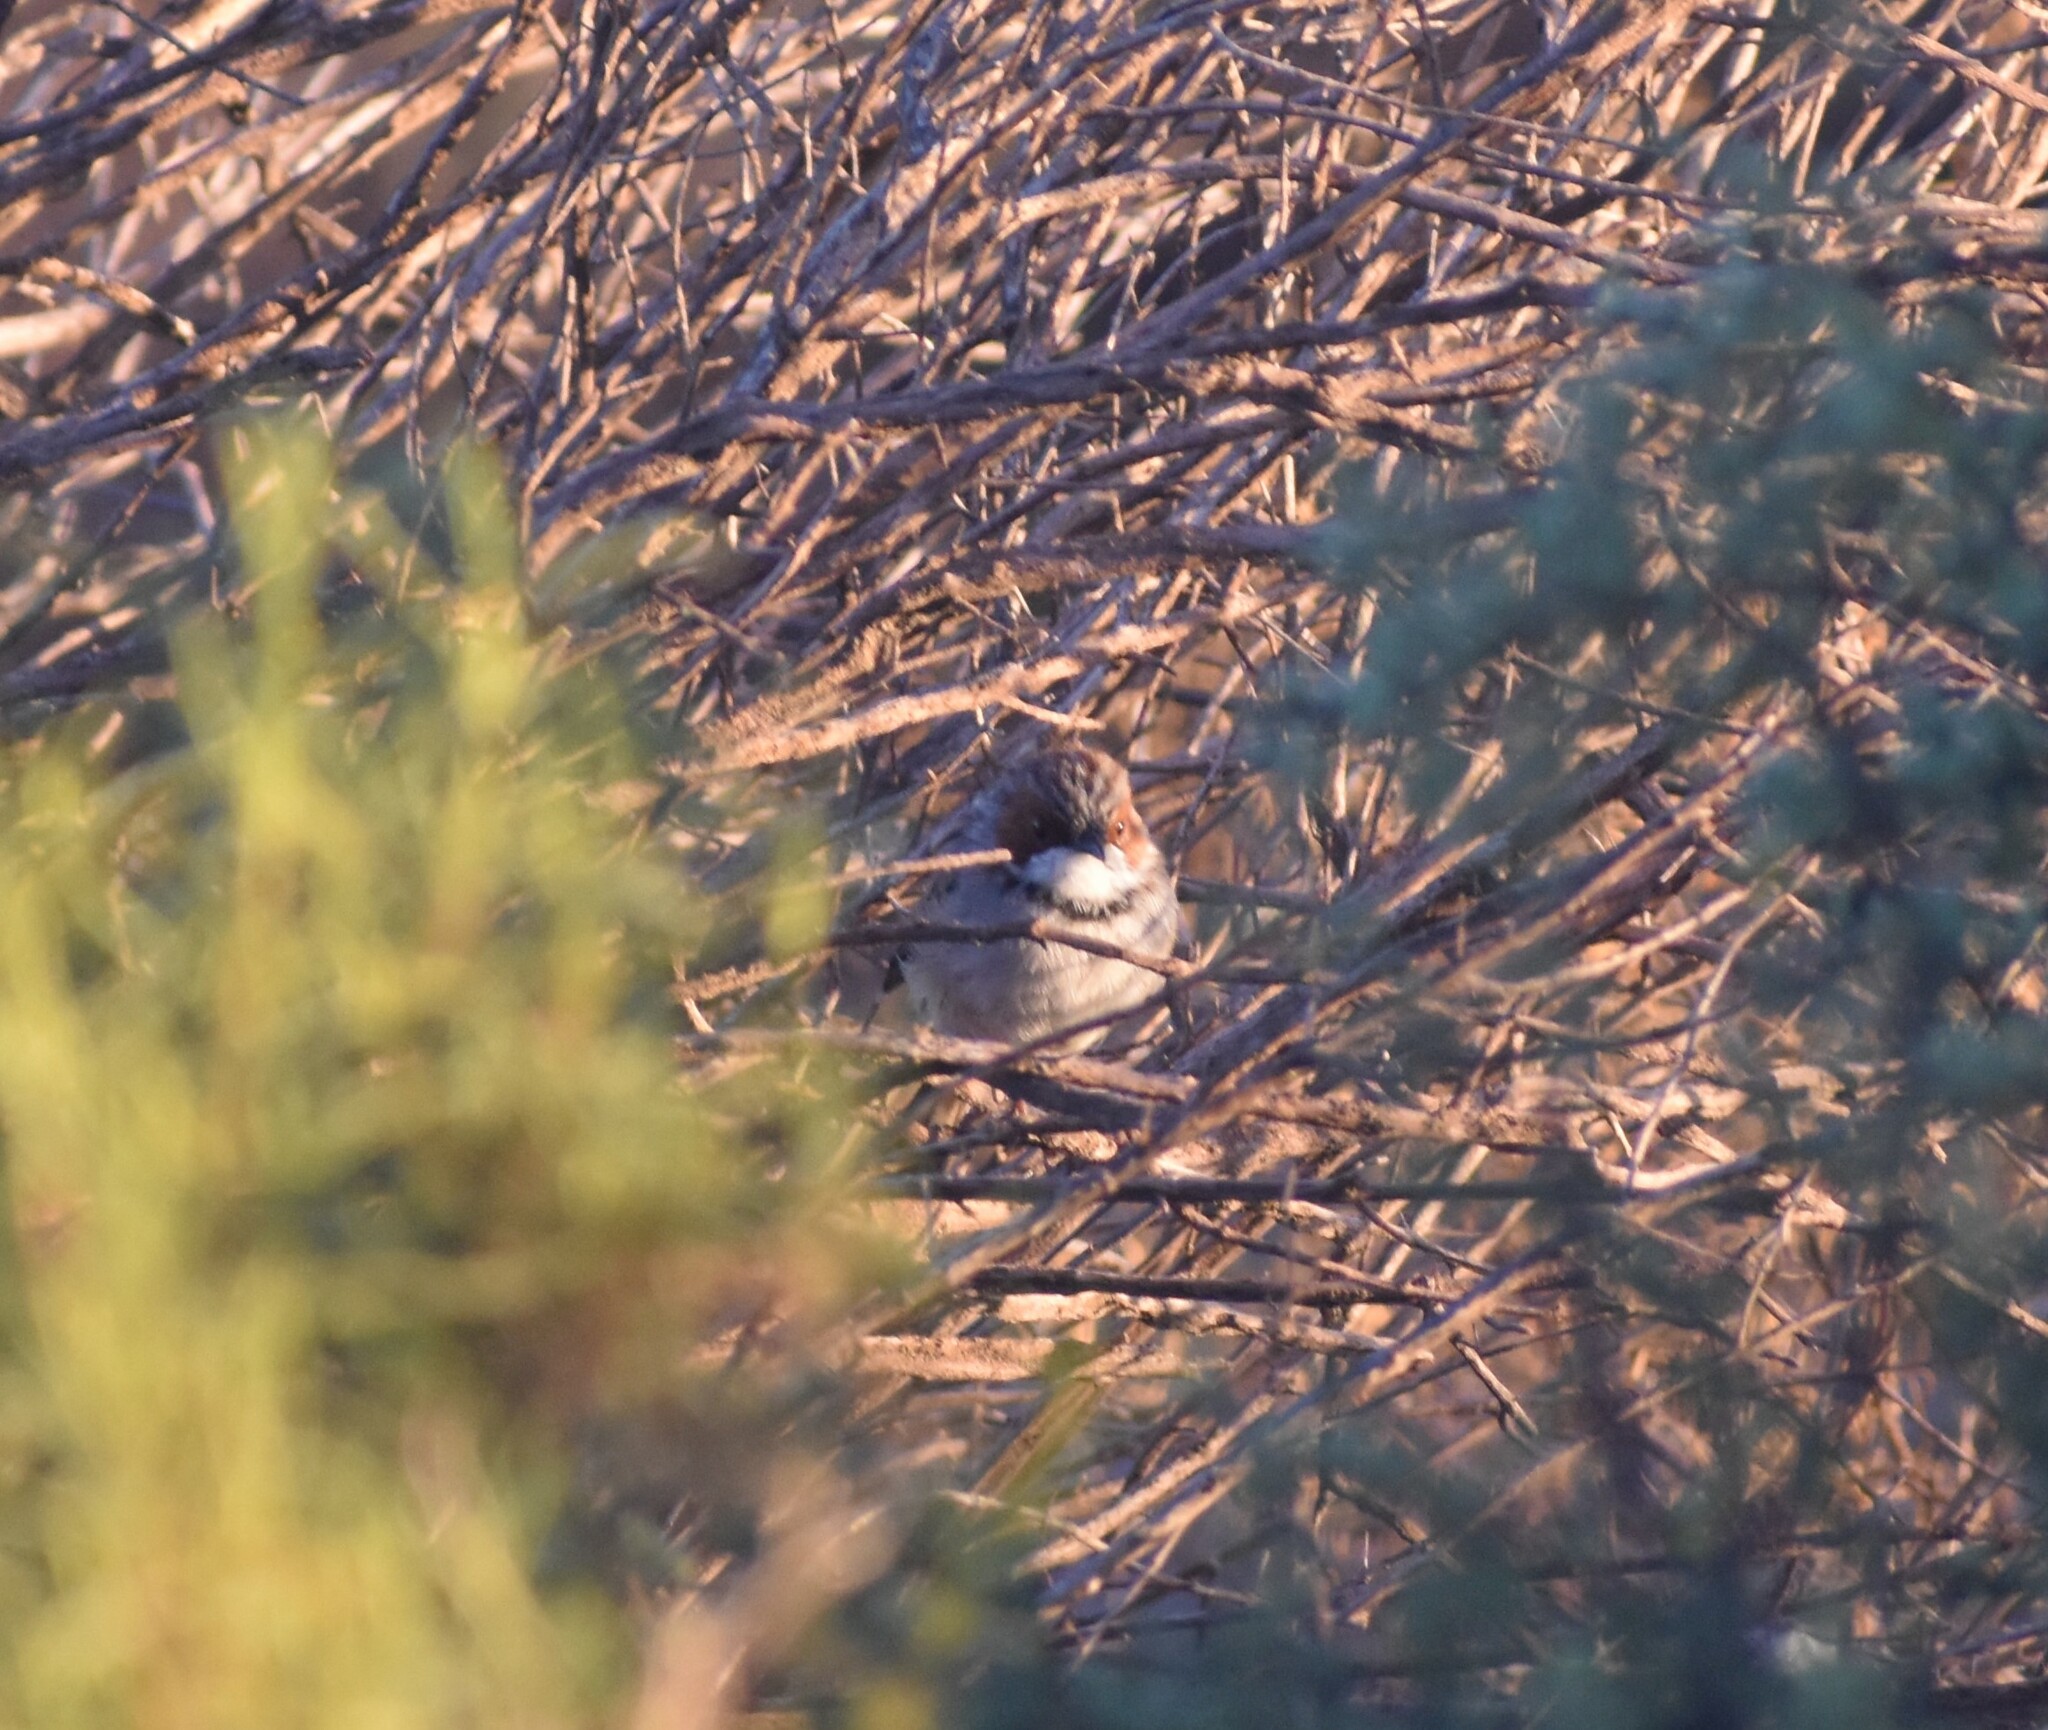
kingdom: Animalia
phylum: Chordata
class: Aves
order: Passeriformes
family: Cisticolidae
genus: Malcorus
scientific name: Malcorus pectoralis
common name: Rufous-eared warbler
